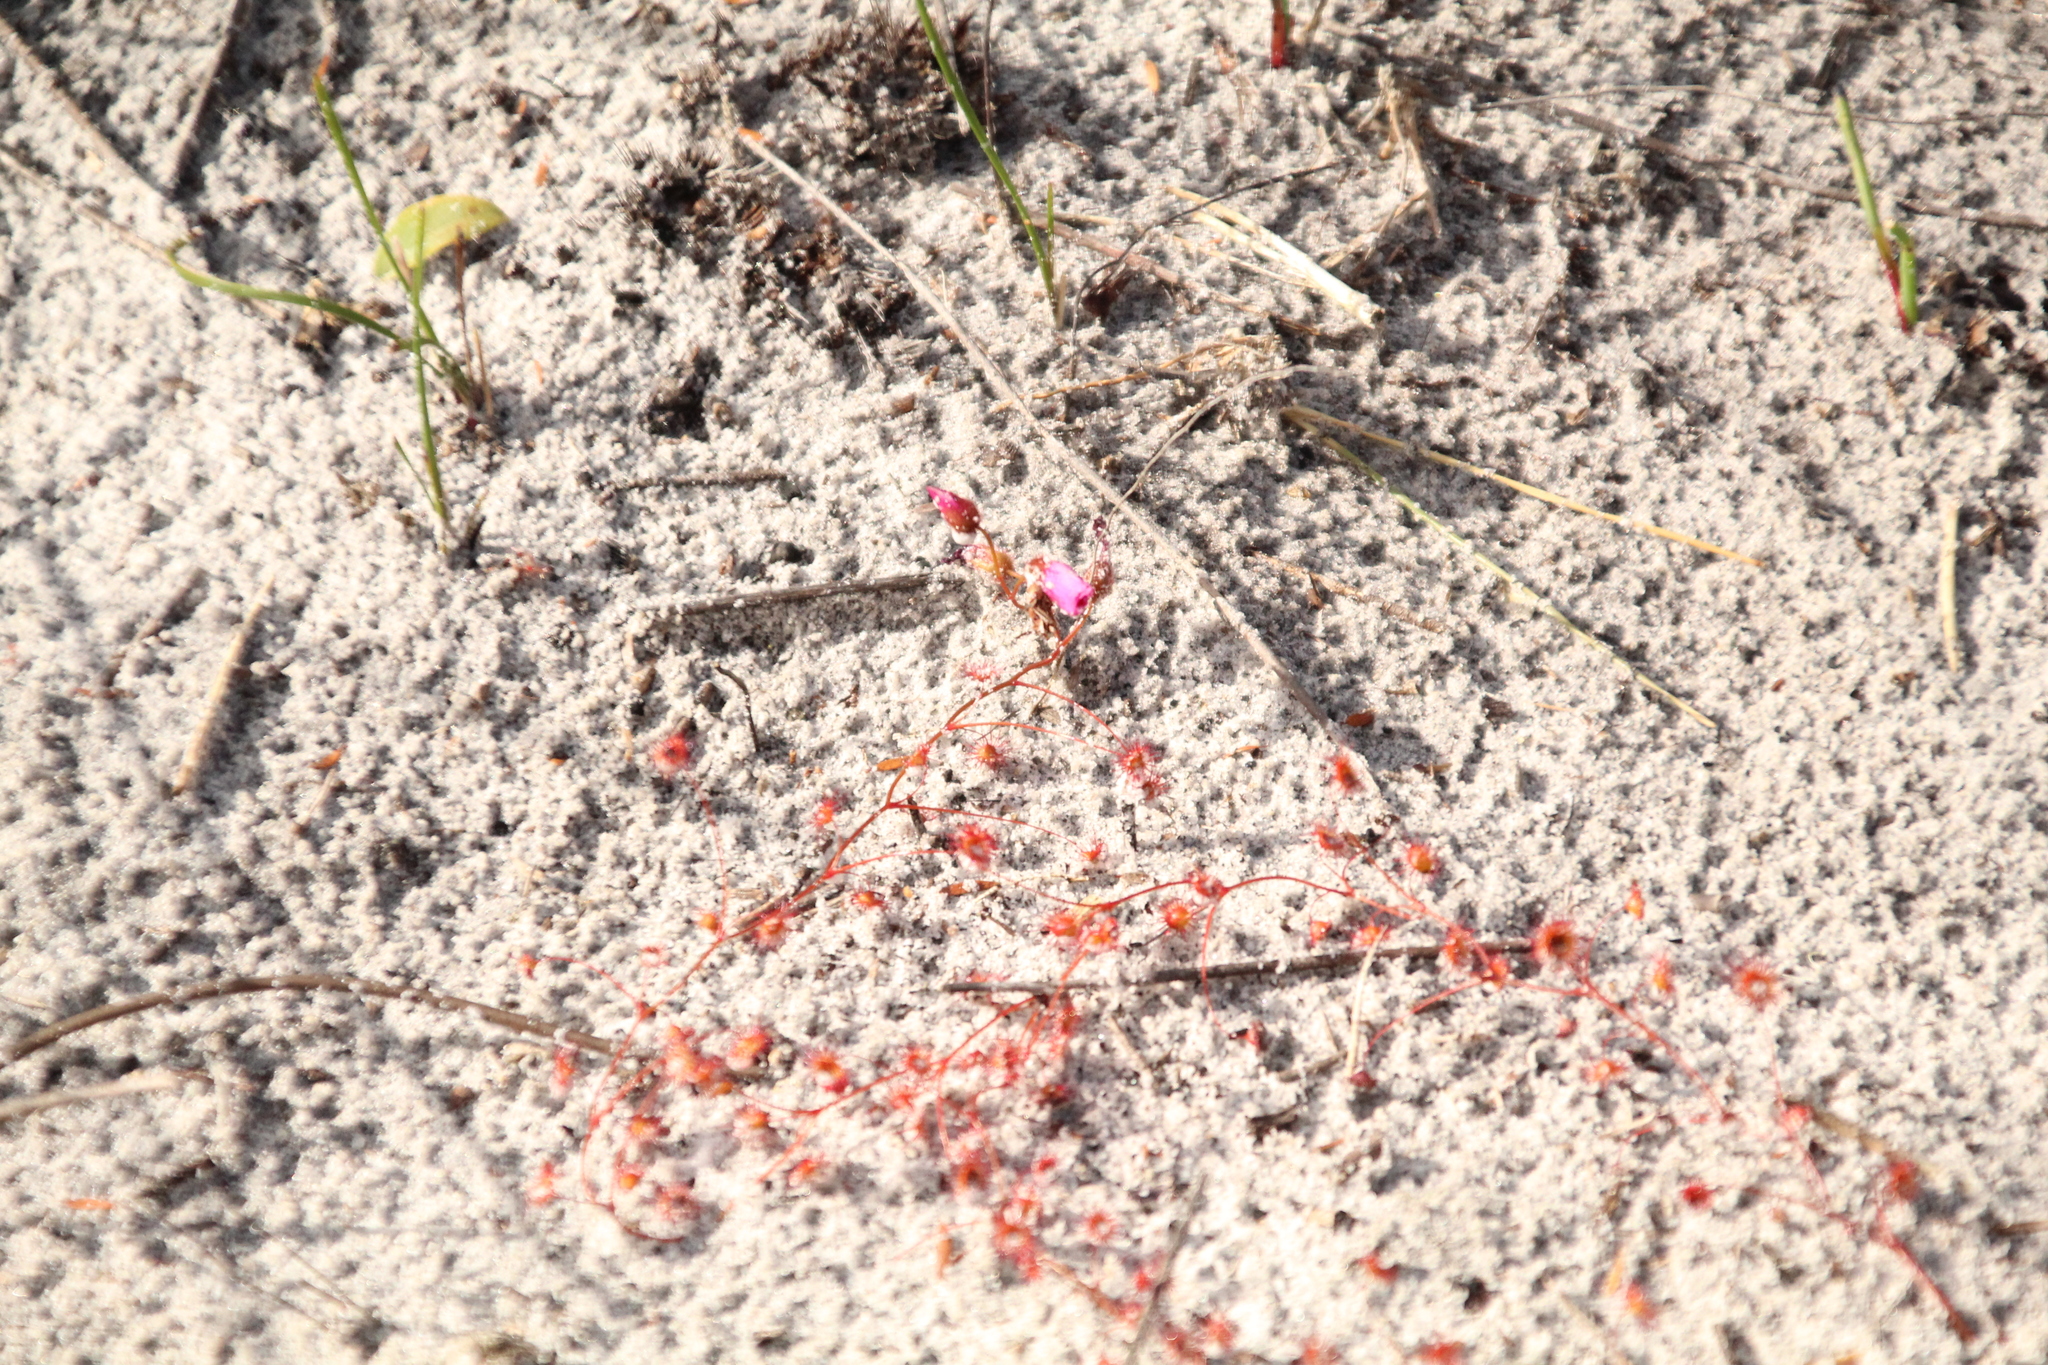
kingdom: Plantae
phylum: Tracheophyta
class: Magnoliopsida
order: Caryophyllales
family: Droseraceae
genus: Drosera
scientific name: Drosera
